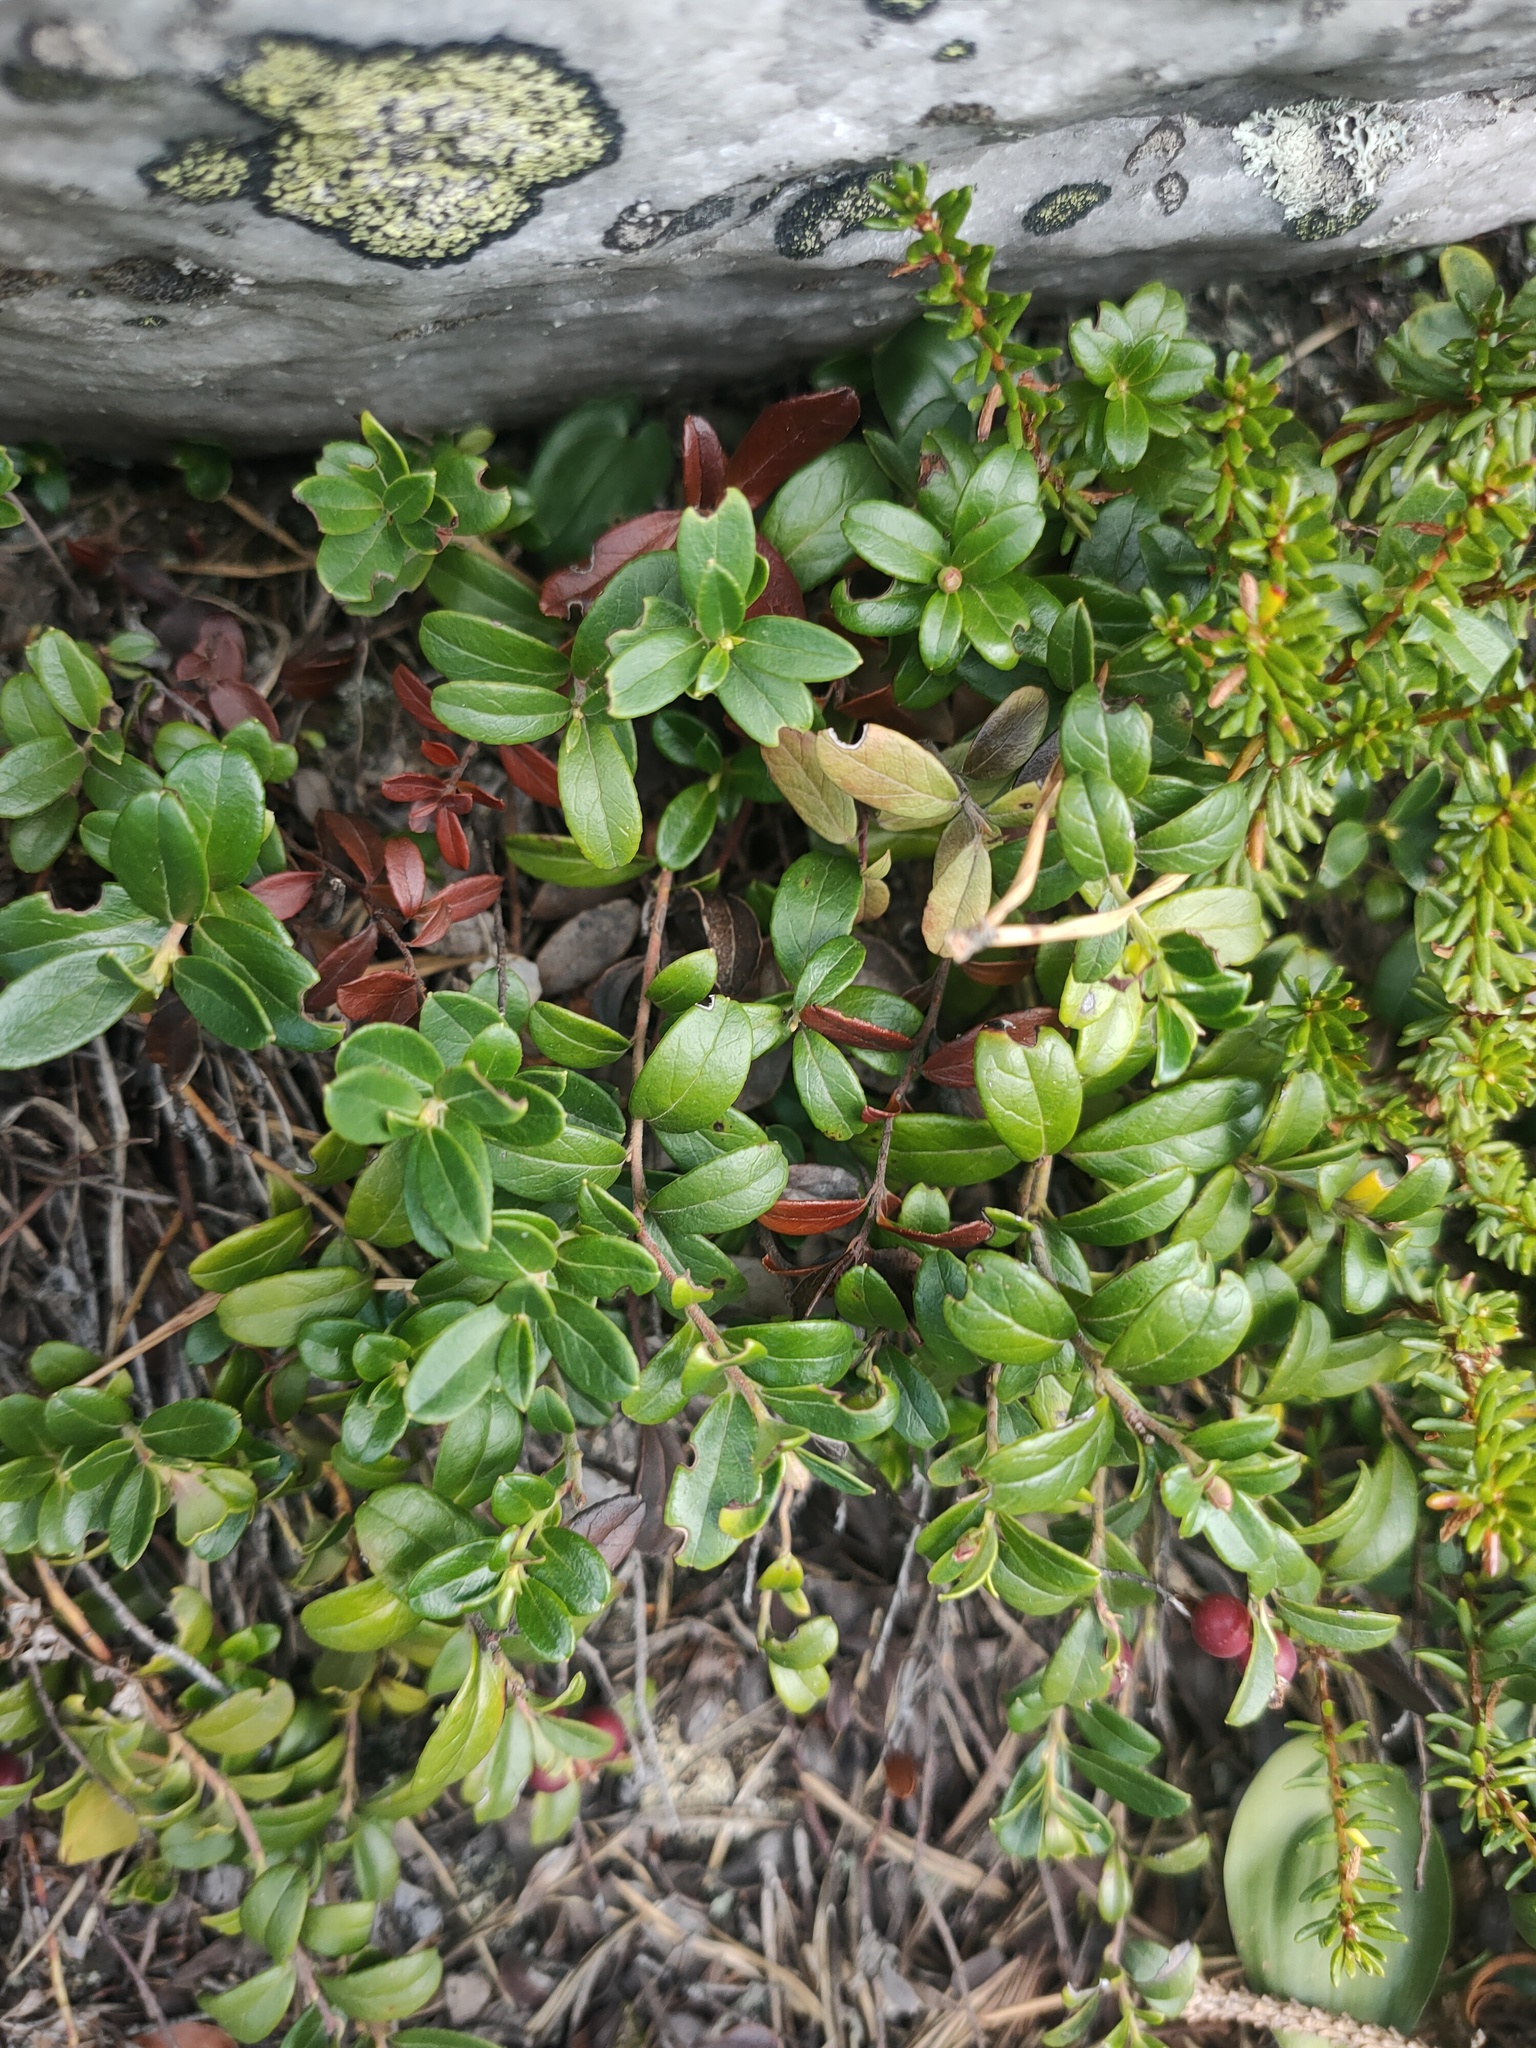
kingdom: Plantae
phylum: Tracheophyta
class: Magnoliopsida
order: Ericales
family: Ericaceae
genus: Vaccinium
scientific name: Vaccinium vitis-idaea
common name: Cowberry
